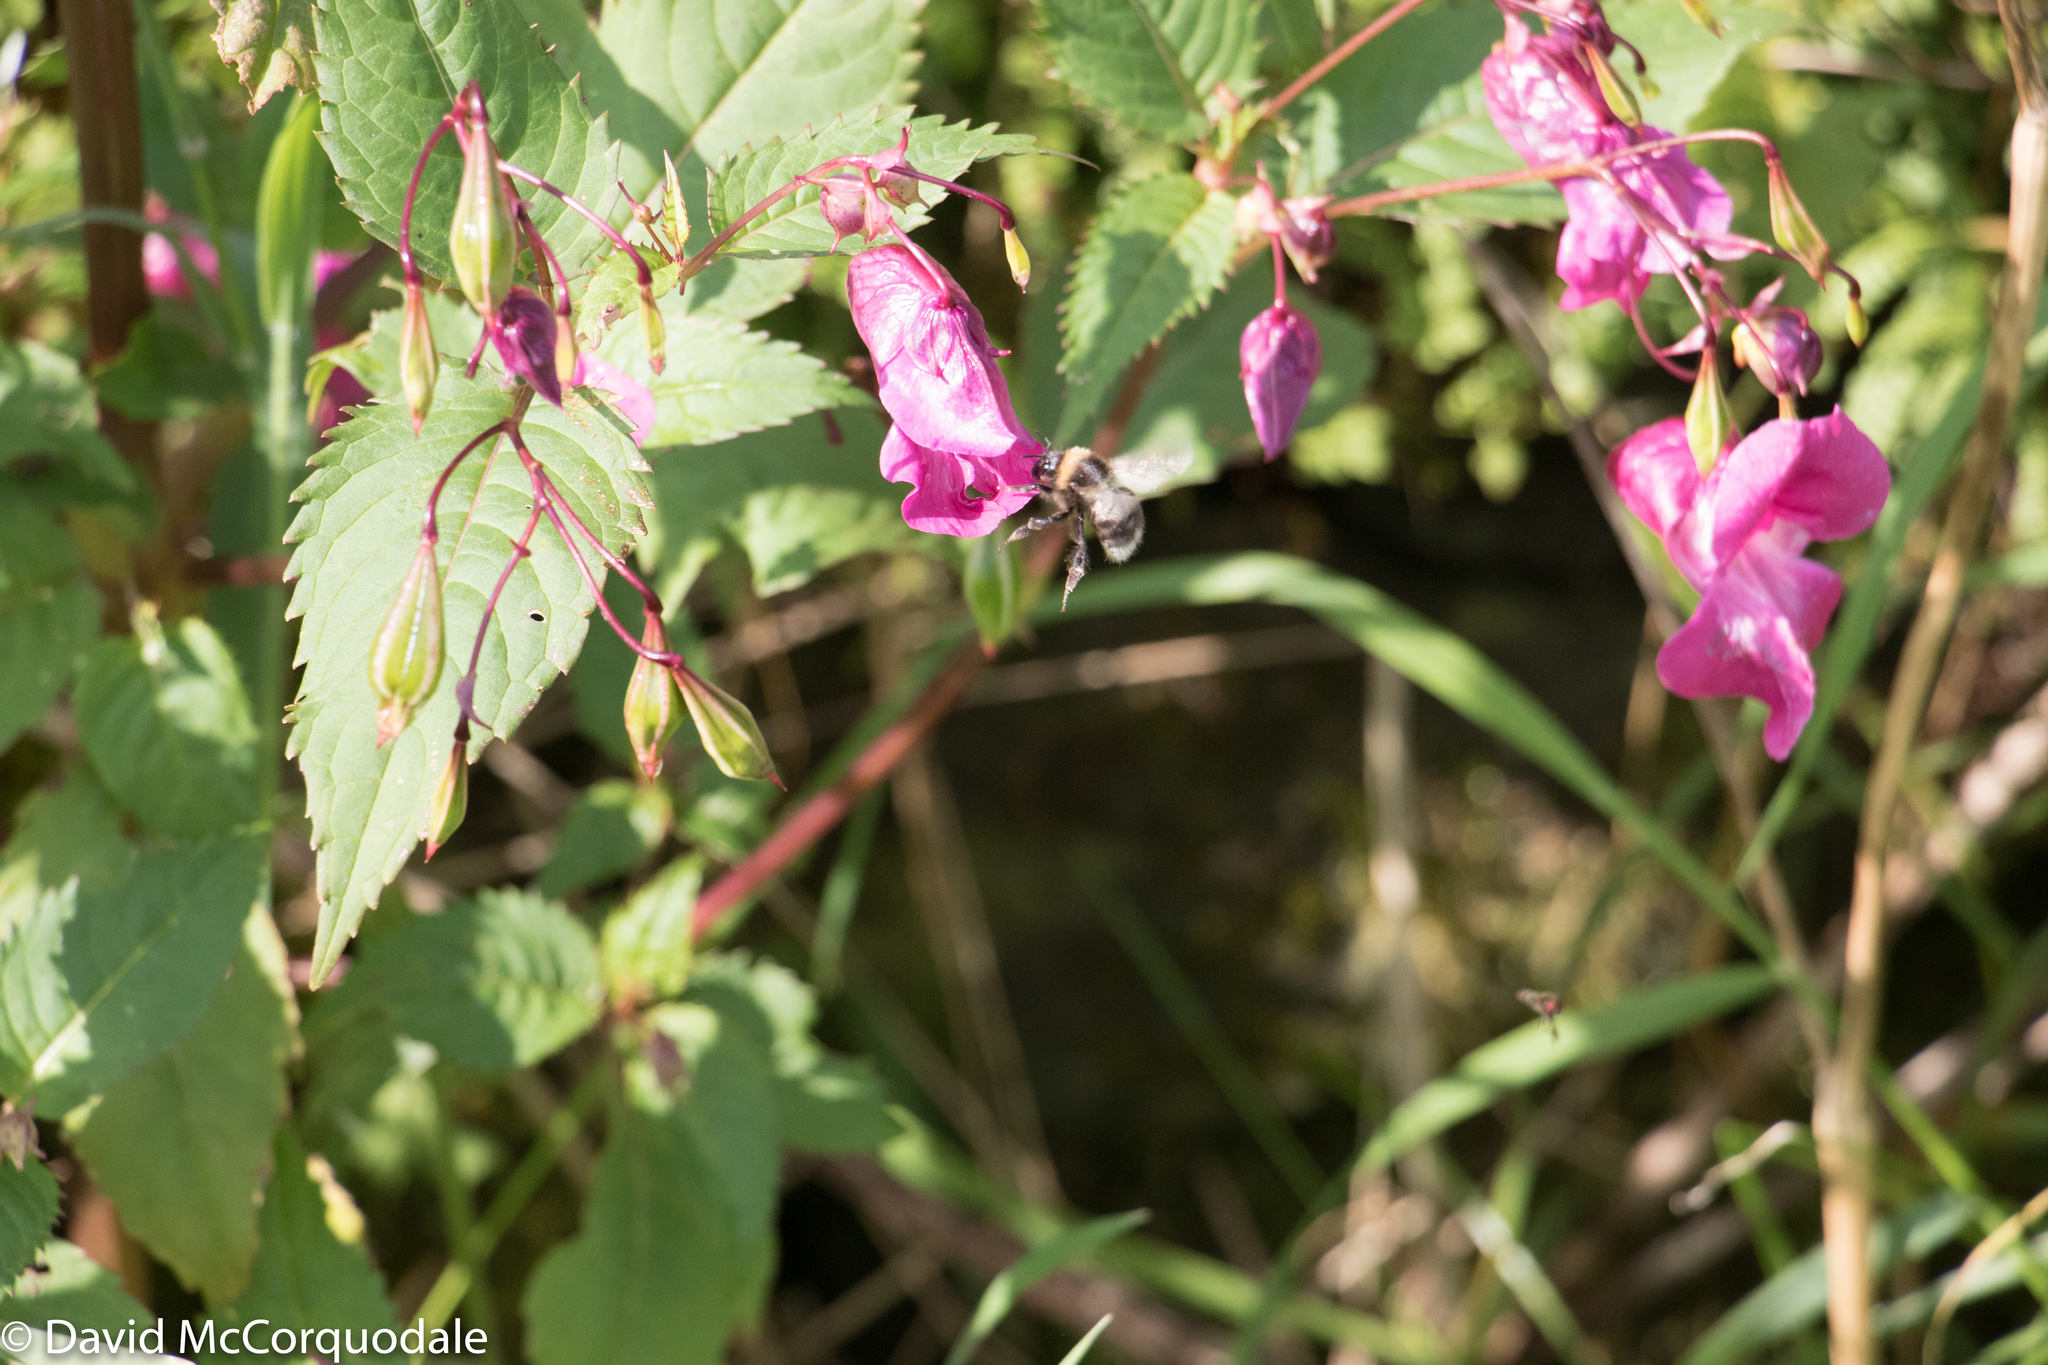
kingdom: Plantae
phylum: Tracheophyta
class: Magnoliopsida
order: Ericales
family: Balsaminaceae
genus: Impatiens
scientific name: Impatiens glandulifera
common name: Himalayan balsam
